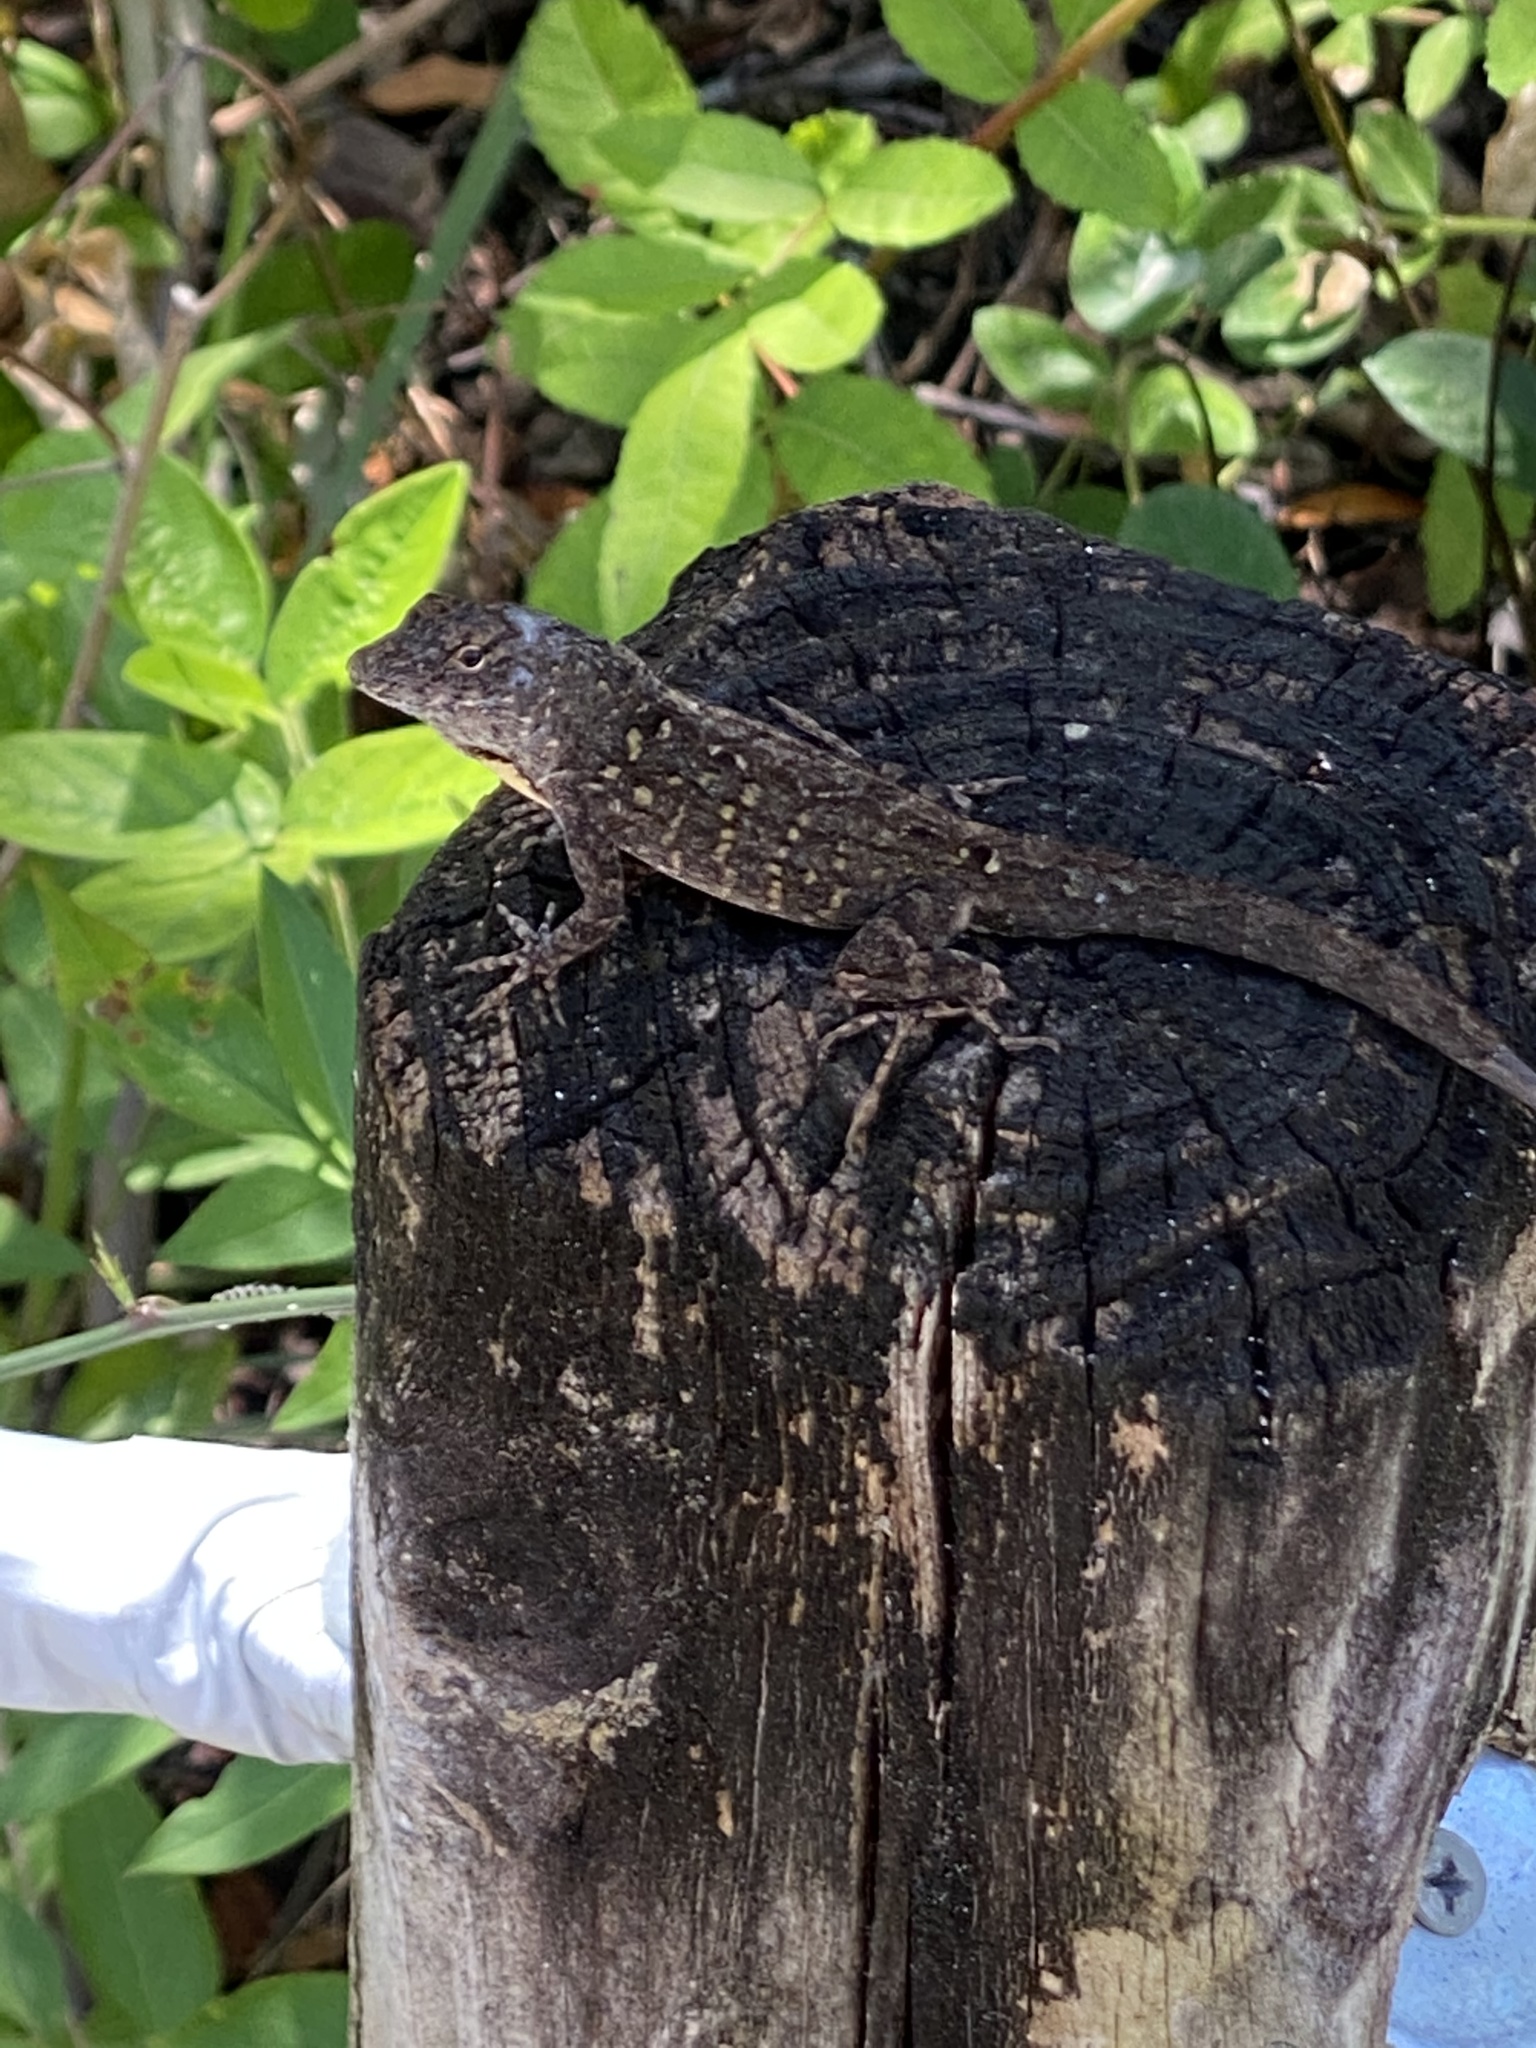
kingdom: Animalia
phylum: Chordata
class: Squamata
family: Dactyloidae
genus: Anolis
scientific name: Anolis sagrei
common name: Brown anole
